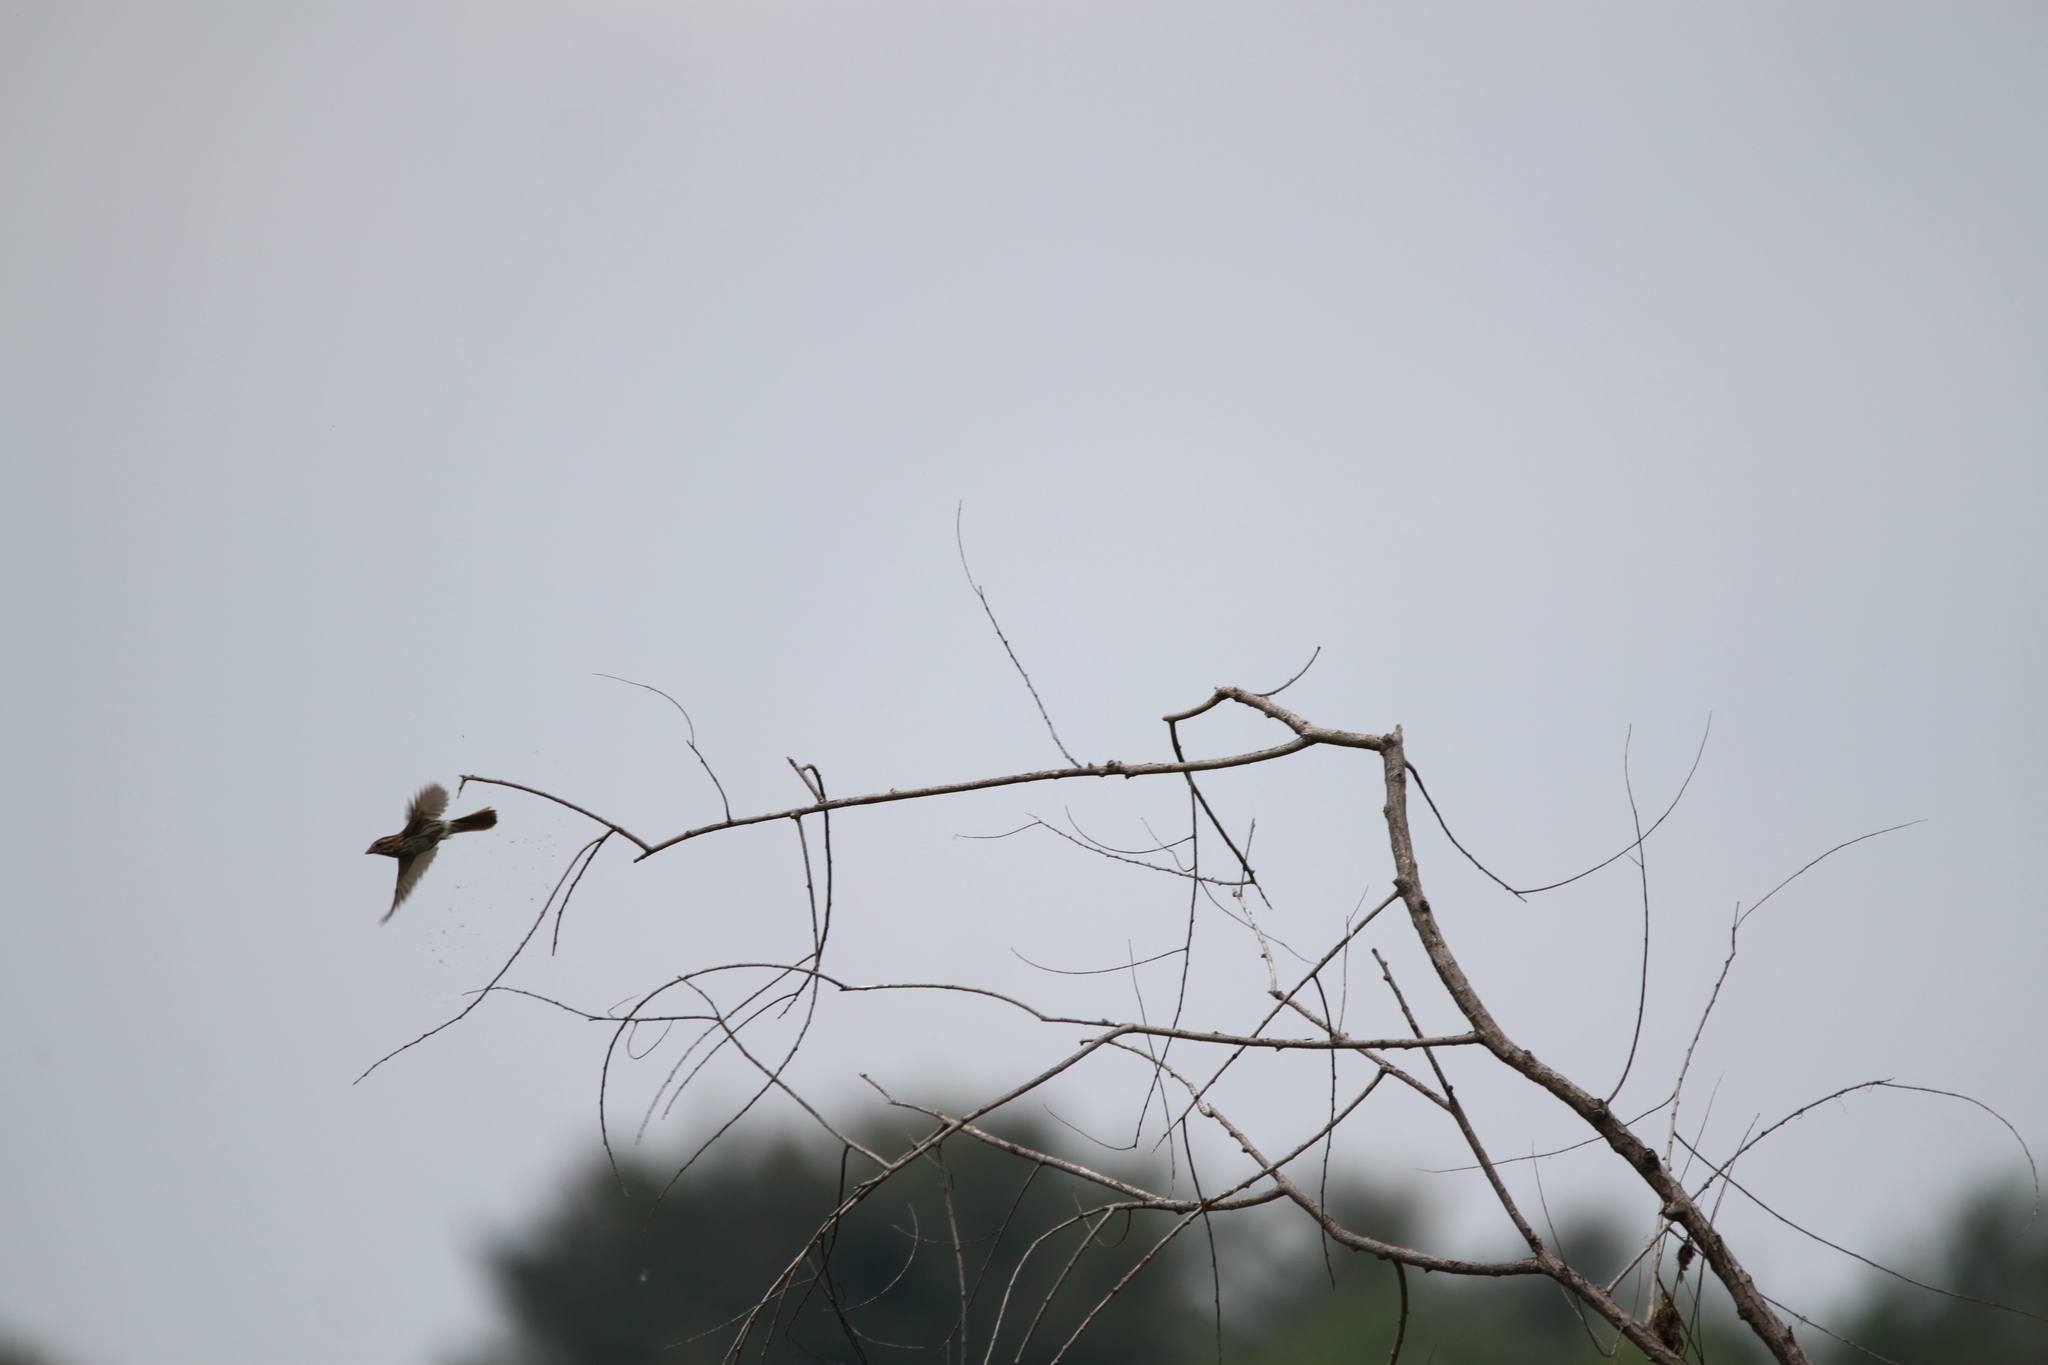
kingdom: Animalia
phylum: Chordata
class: Aves
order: Passeriformes
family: Passerellidae
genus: Melospiza
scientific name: Melospiza melodia
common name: Song sparrow
